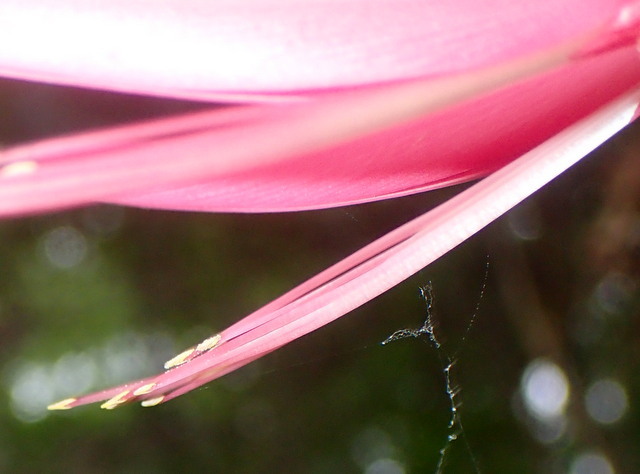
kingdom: Plantae
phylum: Tracheophyta
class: Magnoliopsida
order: Fabales
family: Fabaceae
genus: Erythrina
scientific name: Erythrina herbacea
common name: Coral-bean
